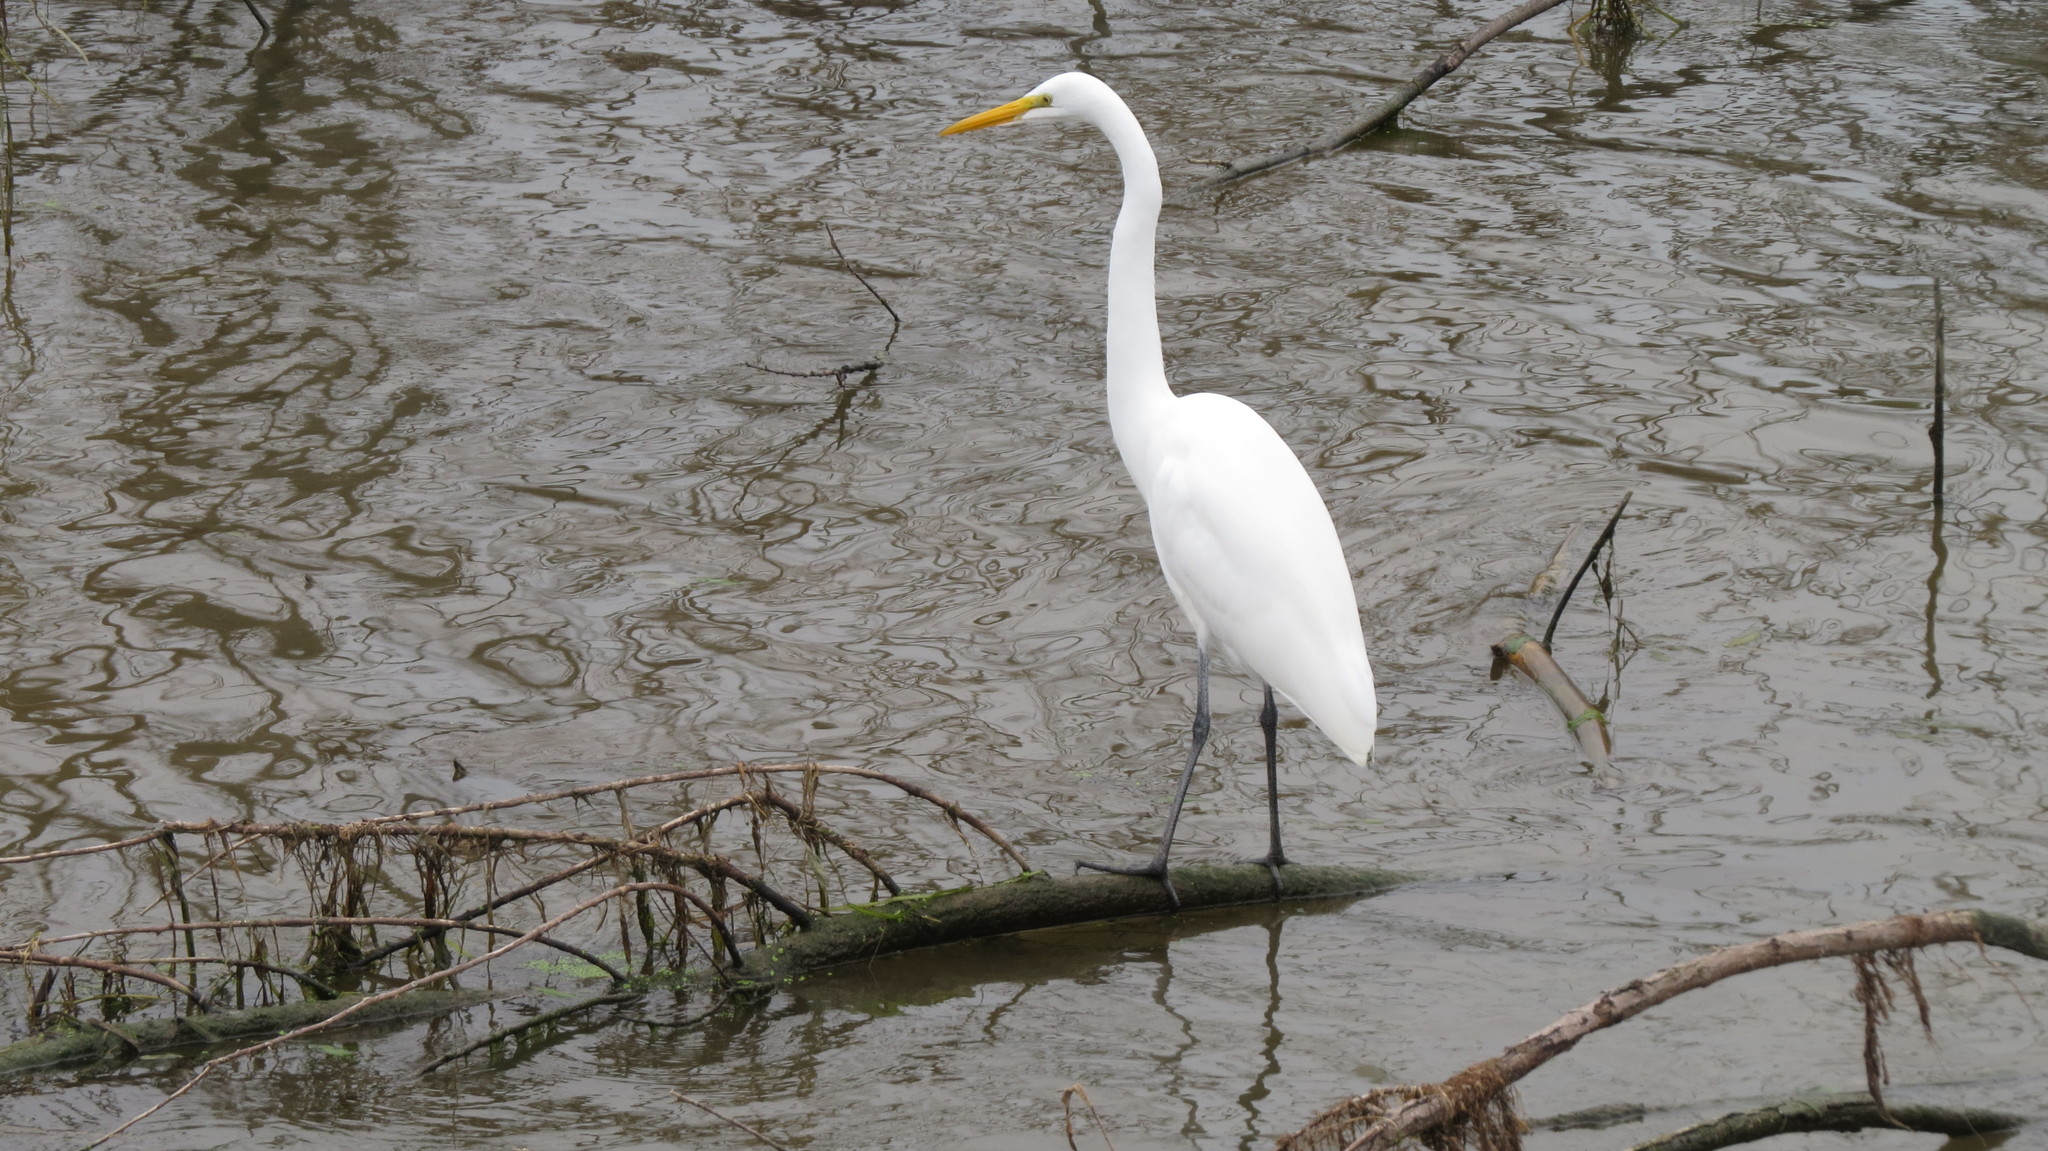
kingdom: Animalia
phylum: Chordata
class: Aves
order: Pelecaniformes
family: Ardeidae
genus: Ardea
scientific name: Ardea alba
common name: Great egret
